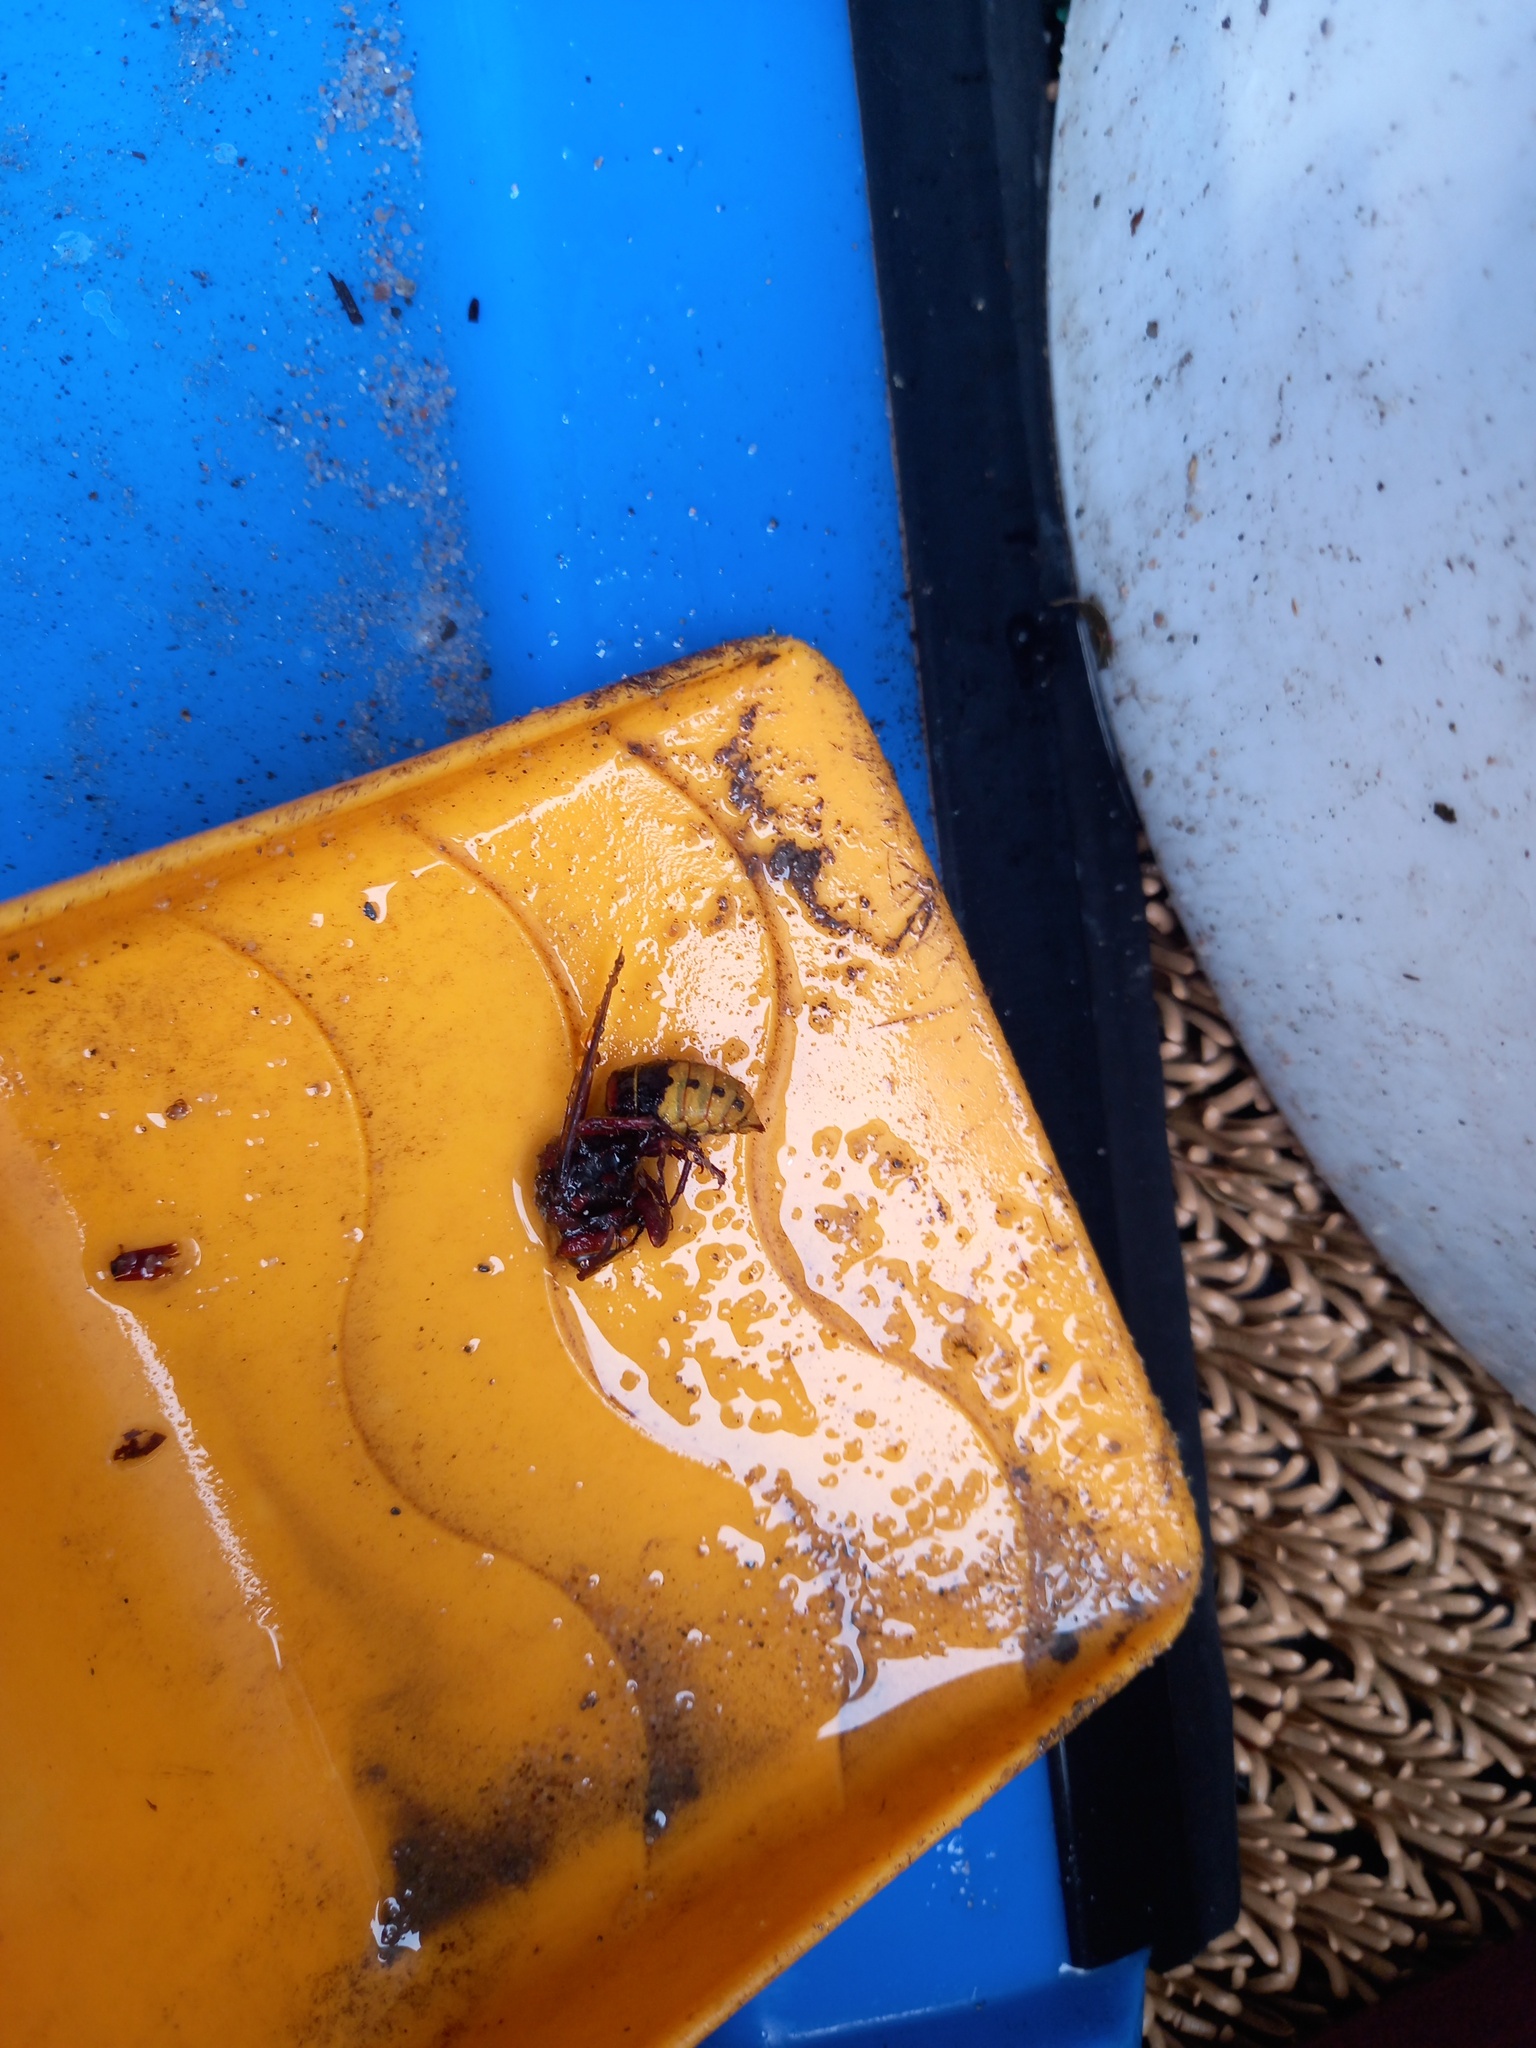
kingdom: Animalia
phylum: Arthropoda
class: Insecta
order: Hymenoptera
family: Vespidae
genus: Vespa
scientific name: Vespa crabro
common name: Hornet
